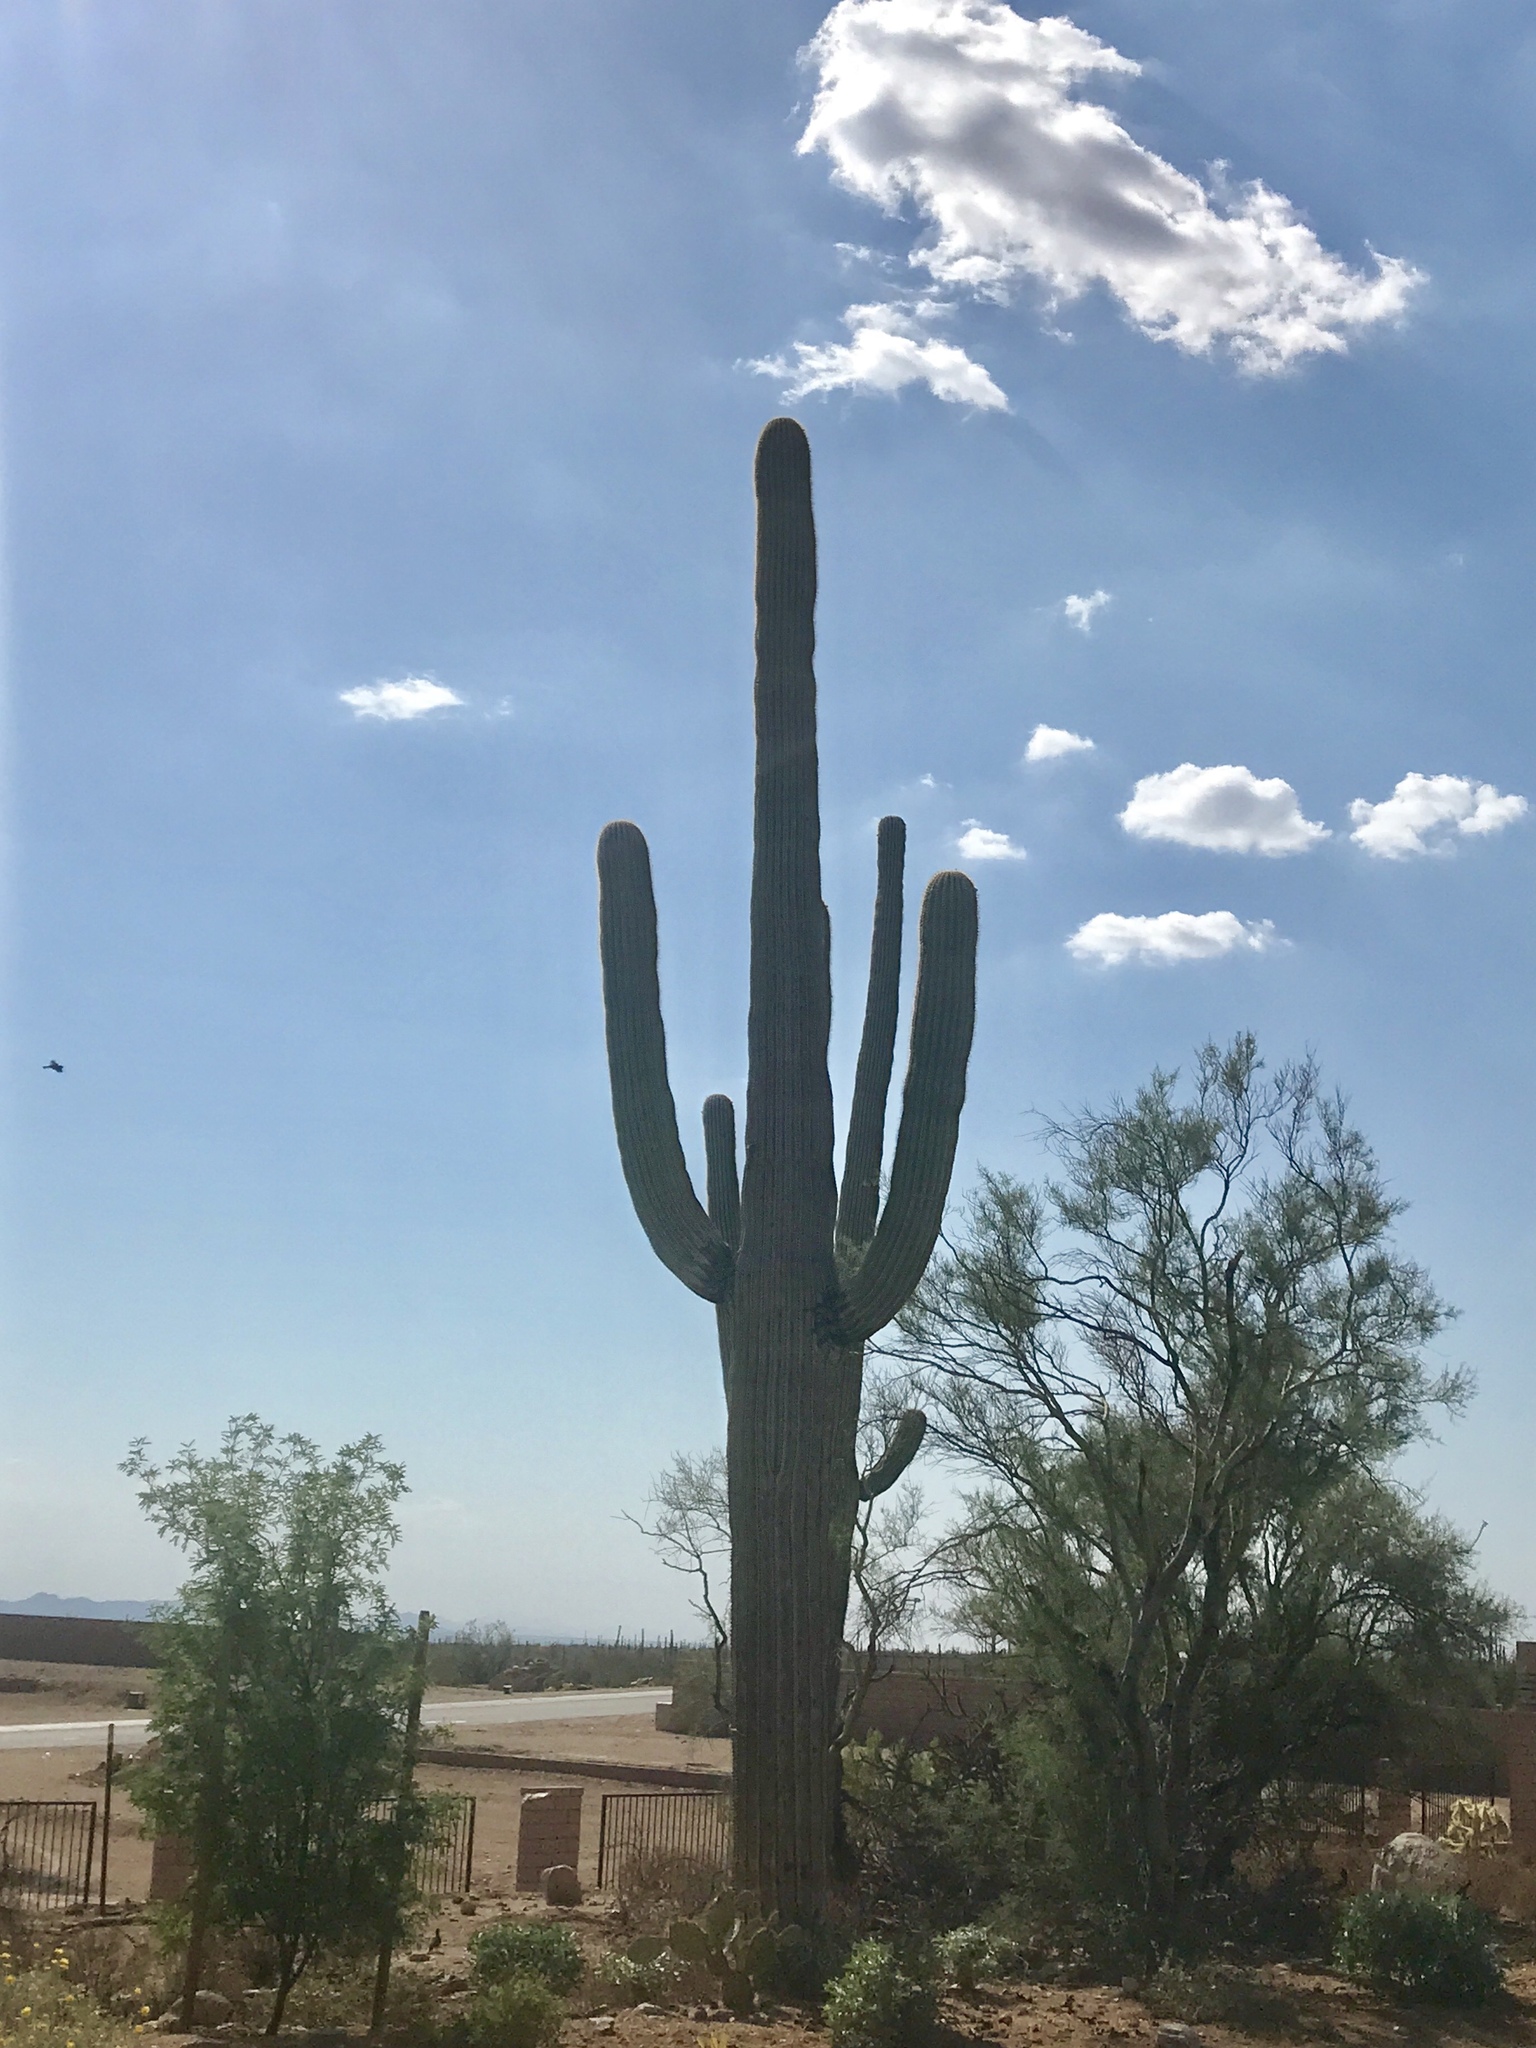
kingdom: Plantae
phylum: Tracheophyta
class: Magnoliopsida
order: Caryophyllales
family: Cactaceae
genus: Carnegiea
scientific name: Carnegiea gigantea
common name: Saguaro
